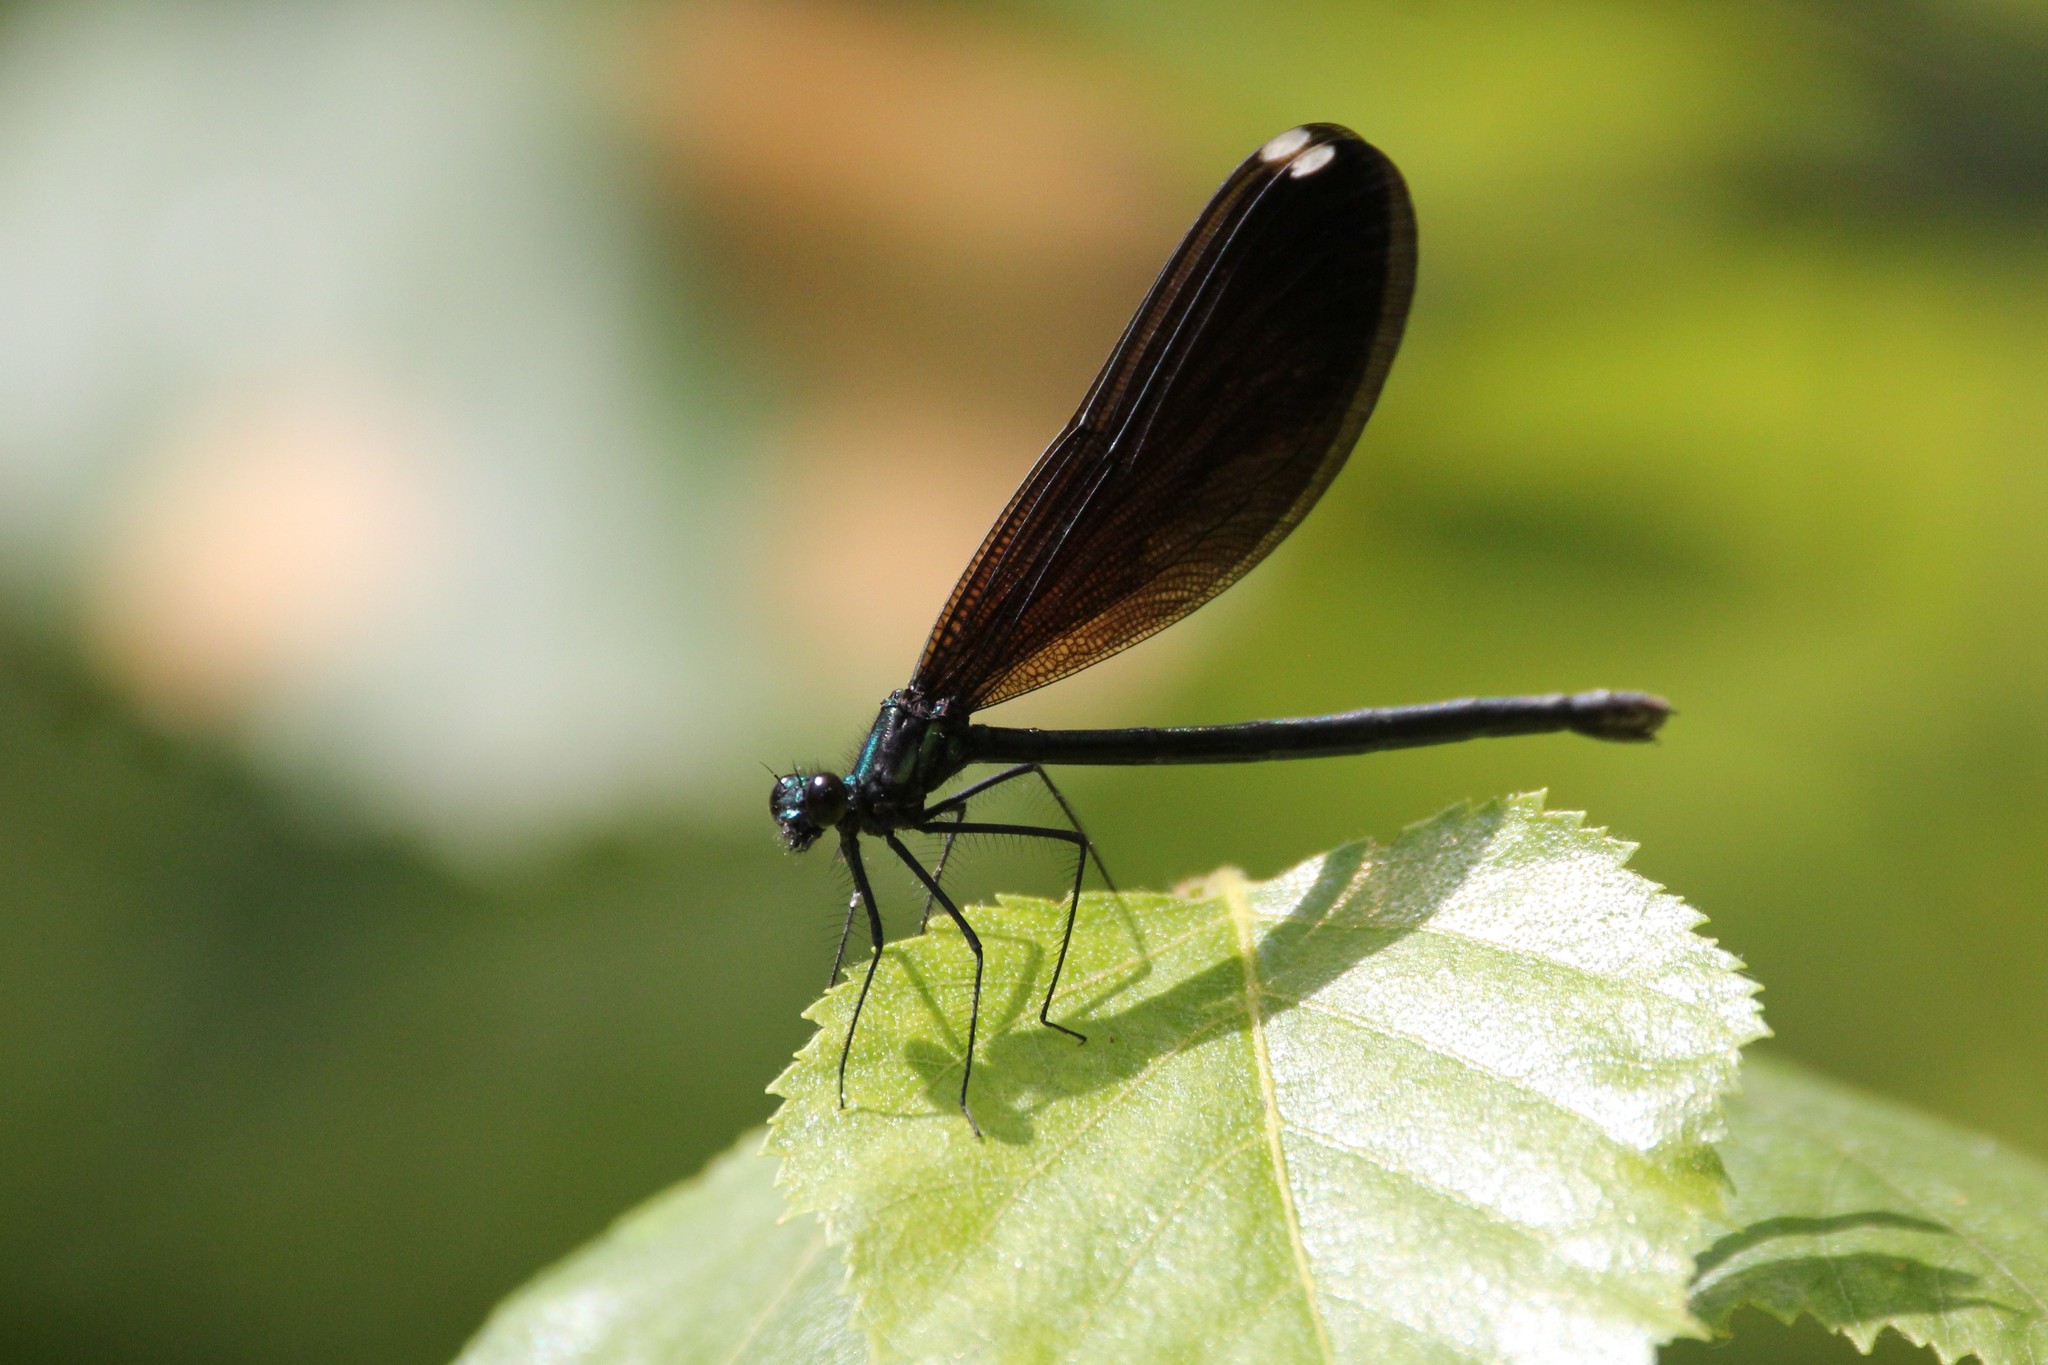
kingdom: Animalia
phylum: Arthropoda
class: Insecta
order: Odonata
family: Calopterygidae
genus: Calopteryx
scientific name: Calopteryx maculata
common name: Ebony jewelwing
